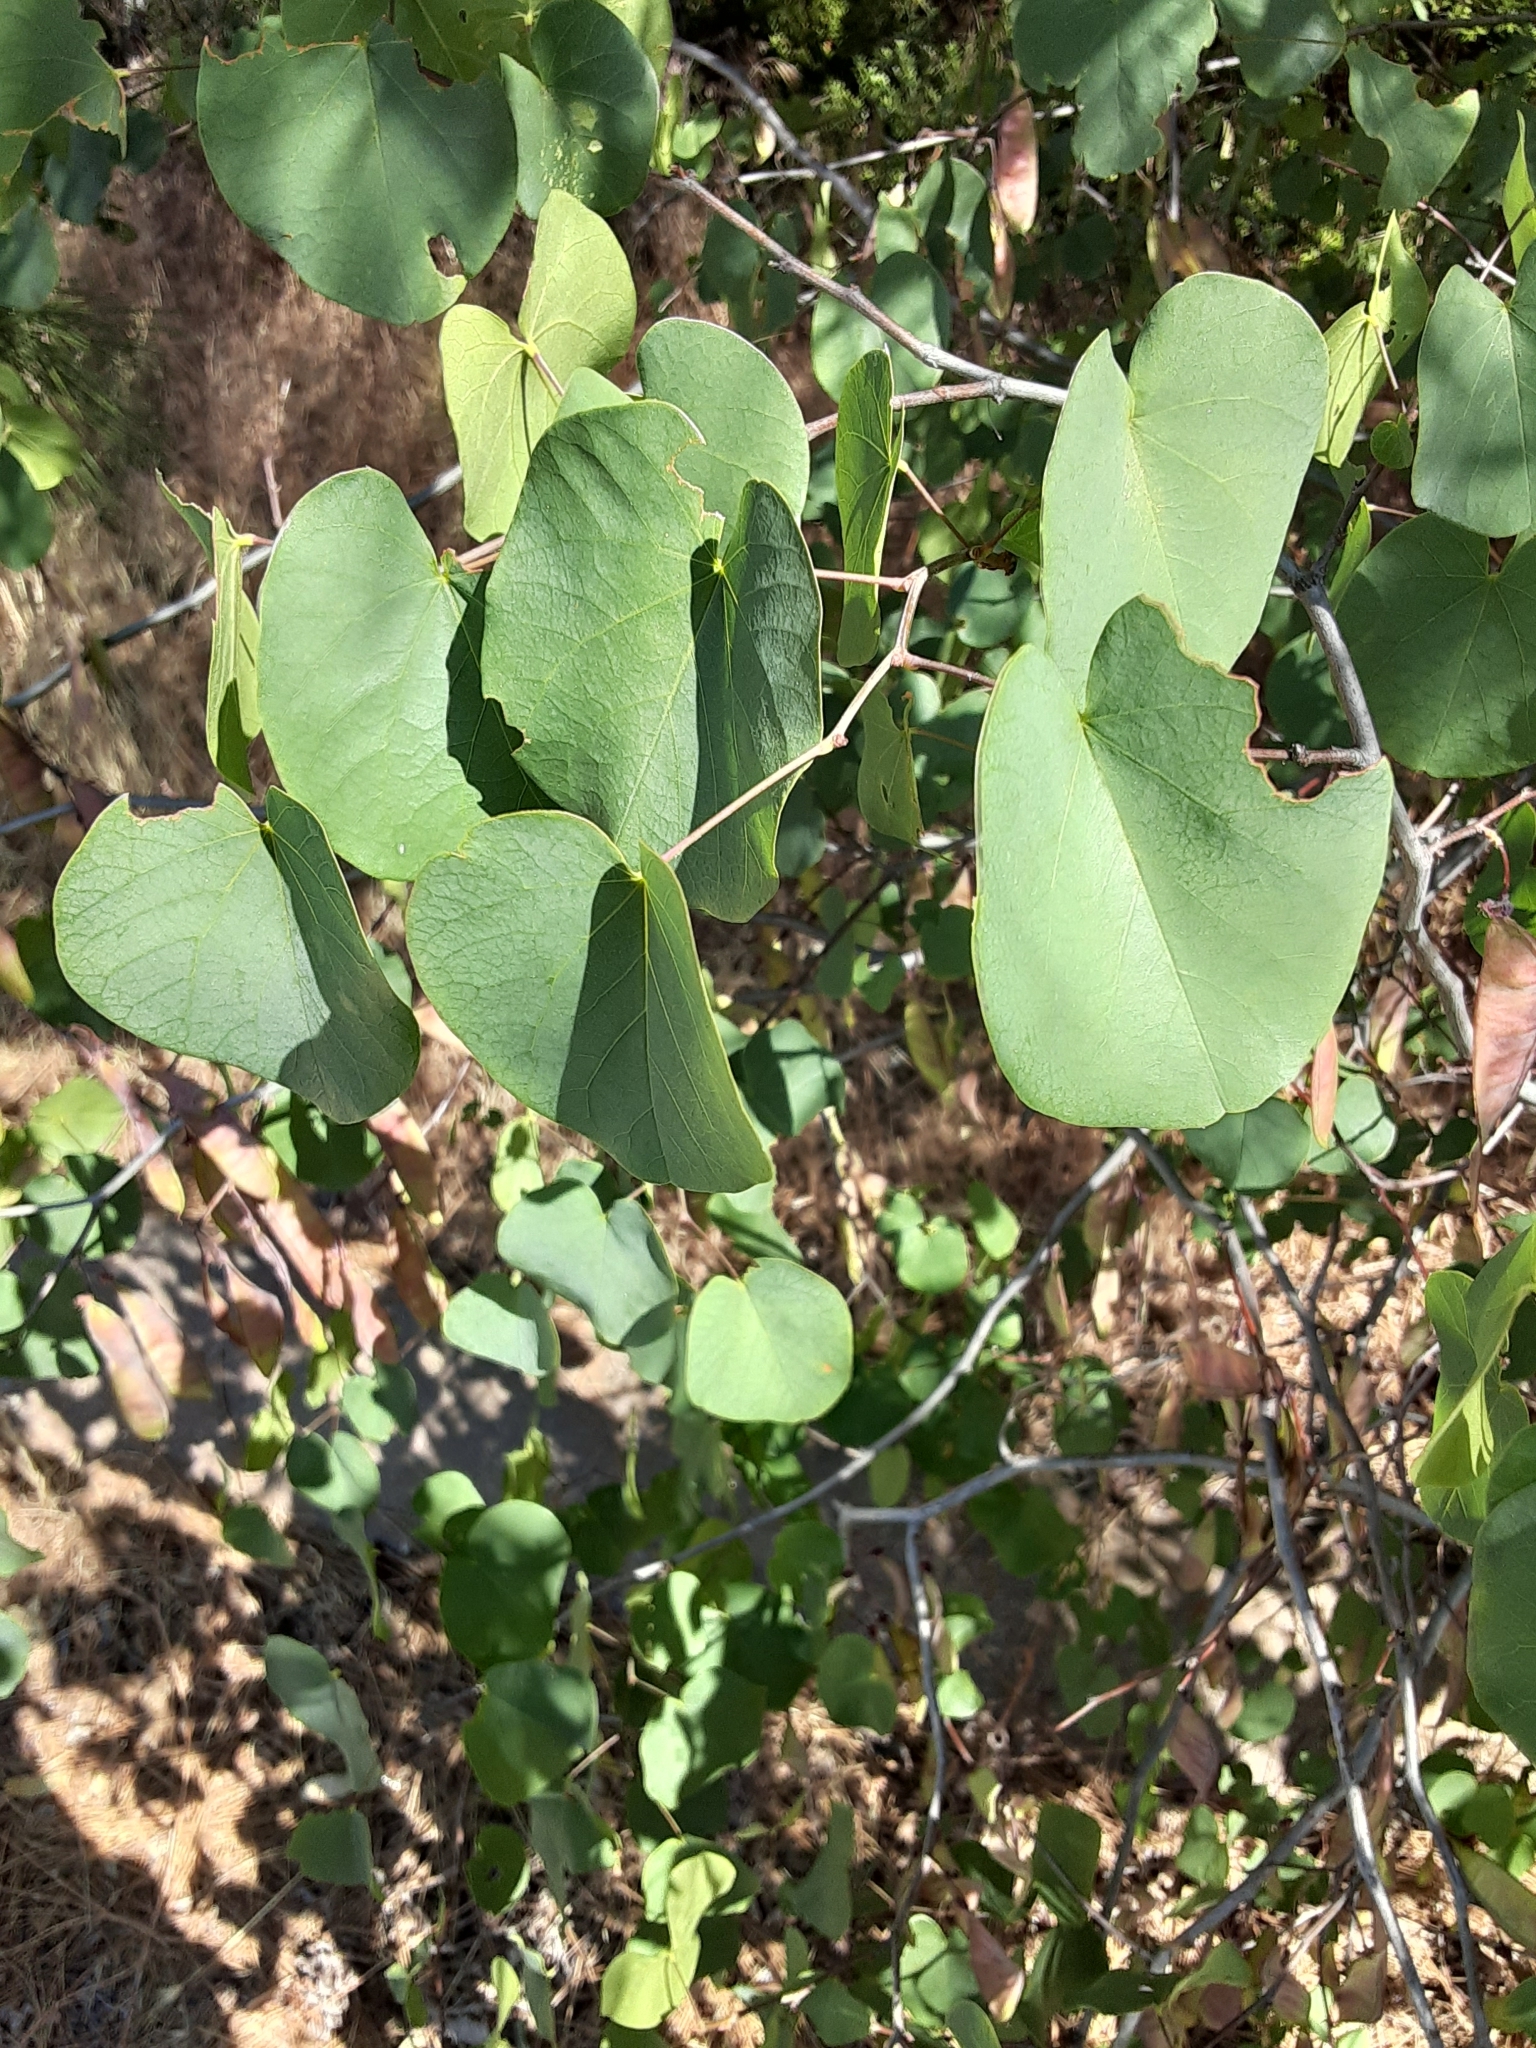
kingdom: Plantae
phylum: Tracheophyta
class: Magnoliopsida
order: Fabales
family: Fabaceae
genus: Cercis
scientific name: Cercis occidentalis
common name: California redbud
